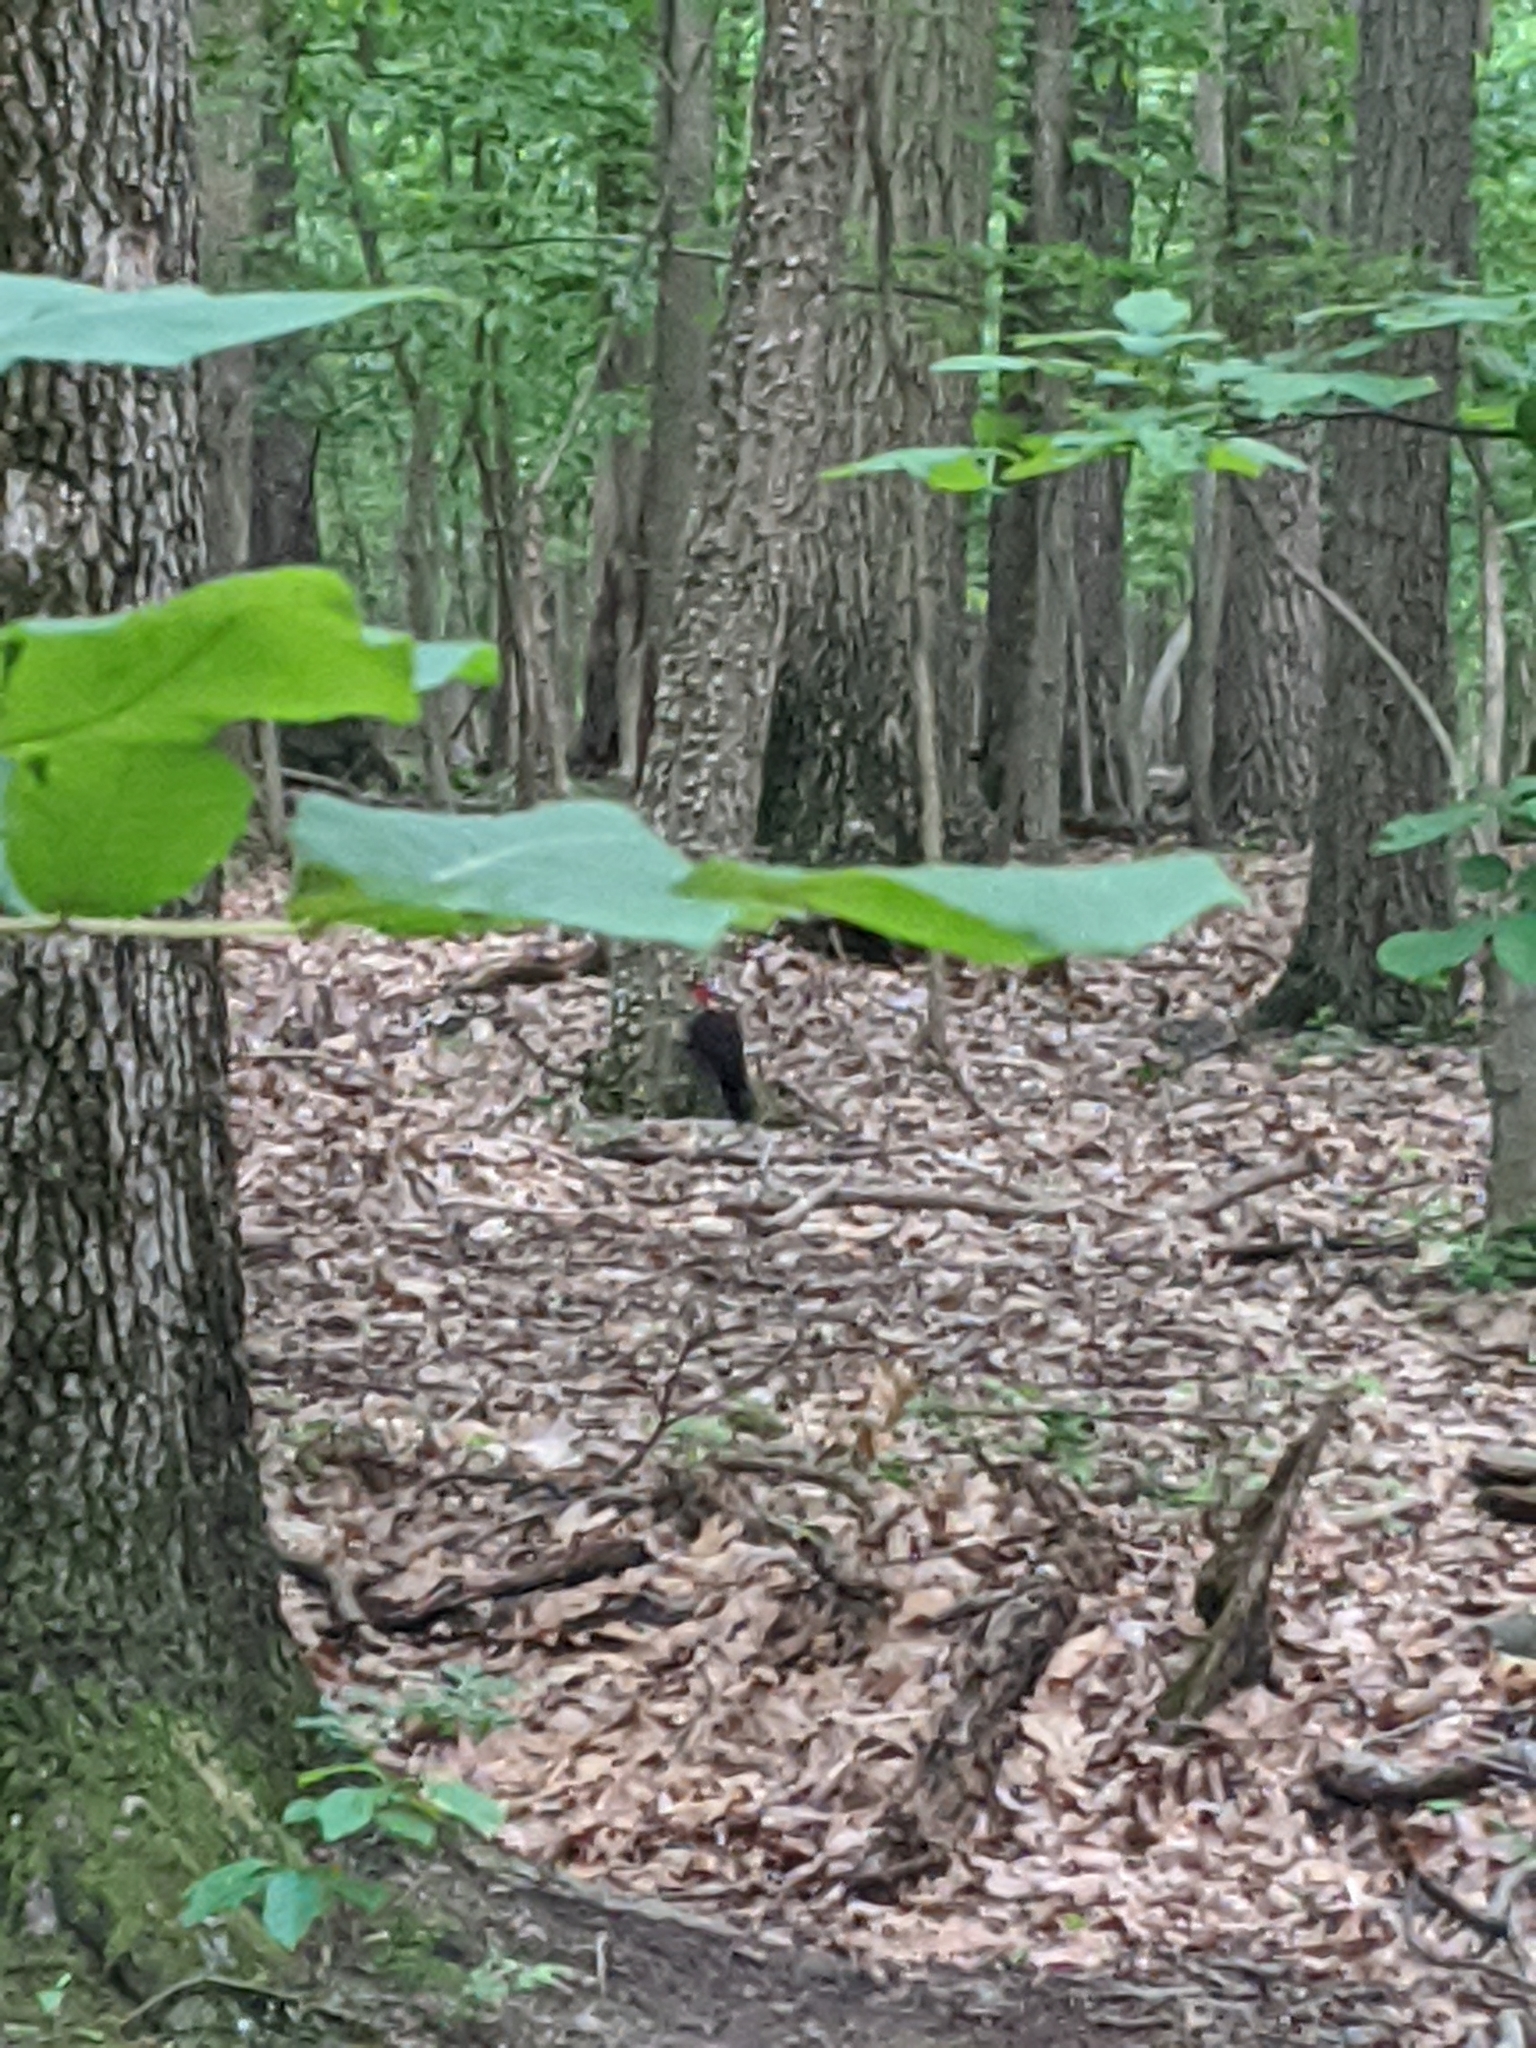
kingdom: Animalia
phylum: Chordata
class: Aves
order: Piciformes
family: Picidae
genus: Dryocopus
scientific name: Dryocopus pileatus
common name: Pileated woodpecker
